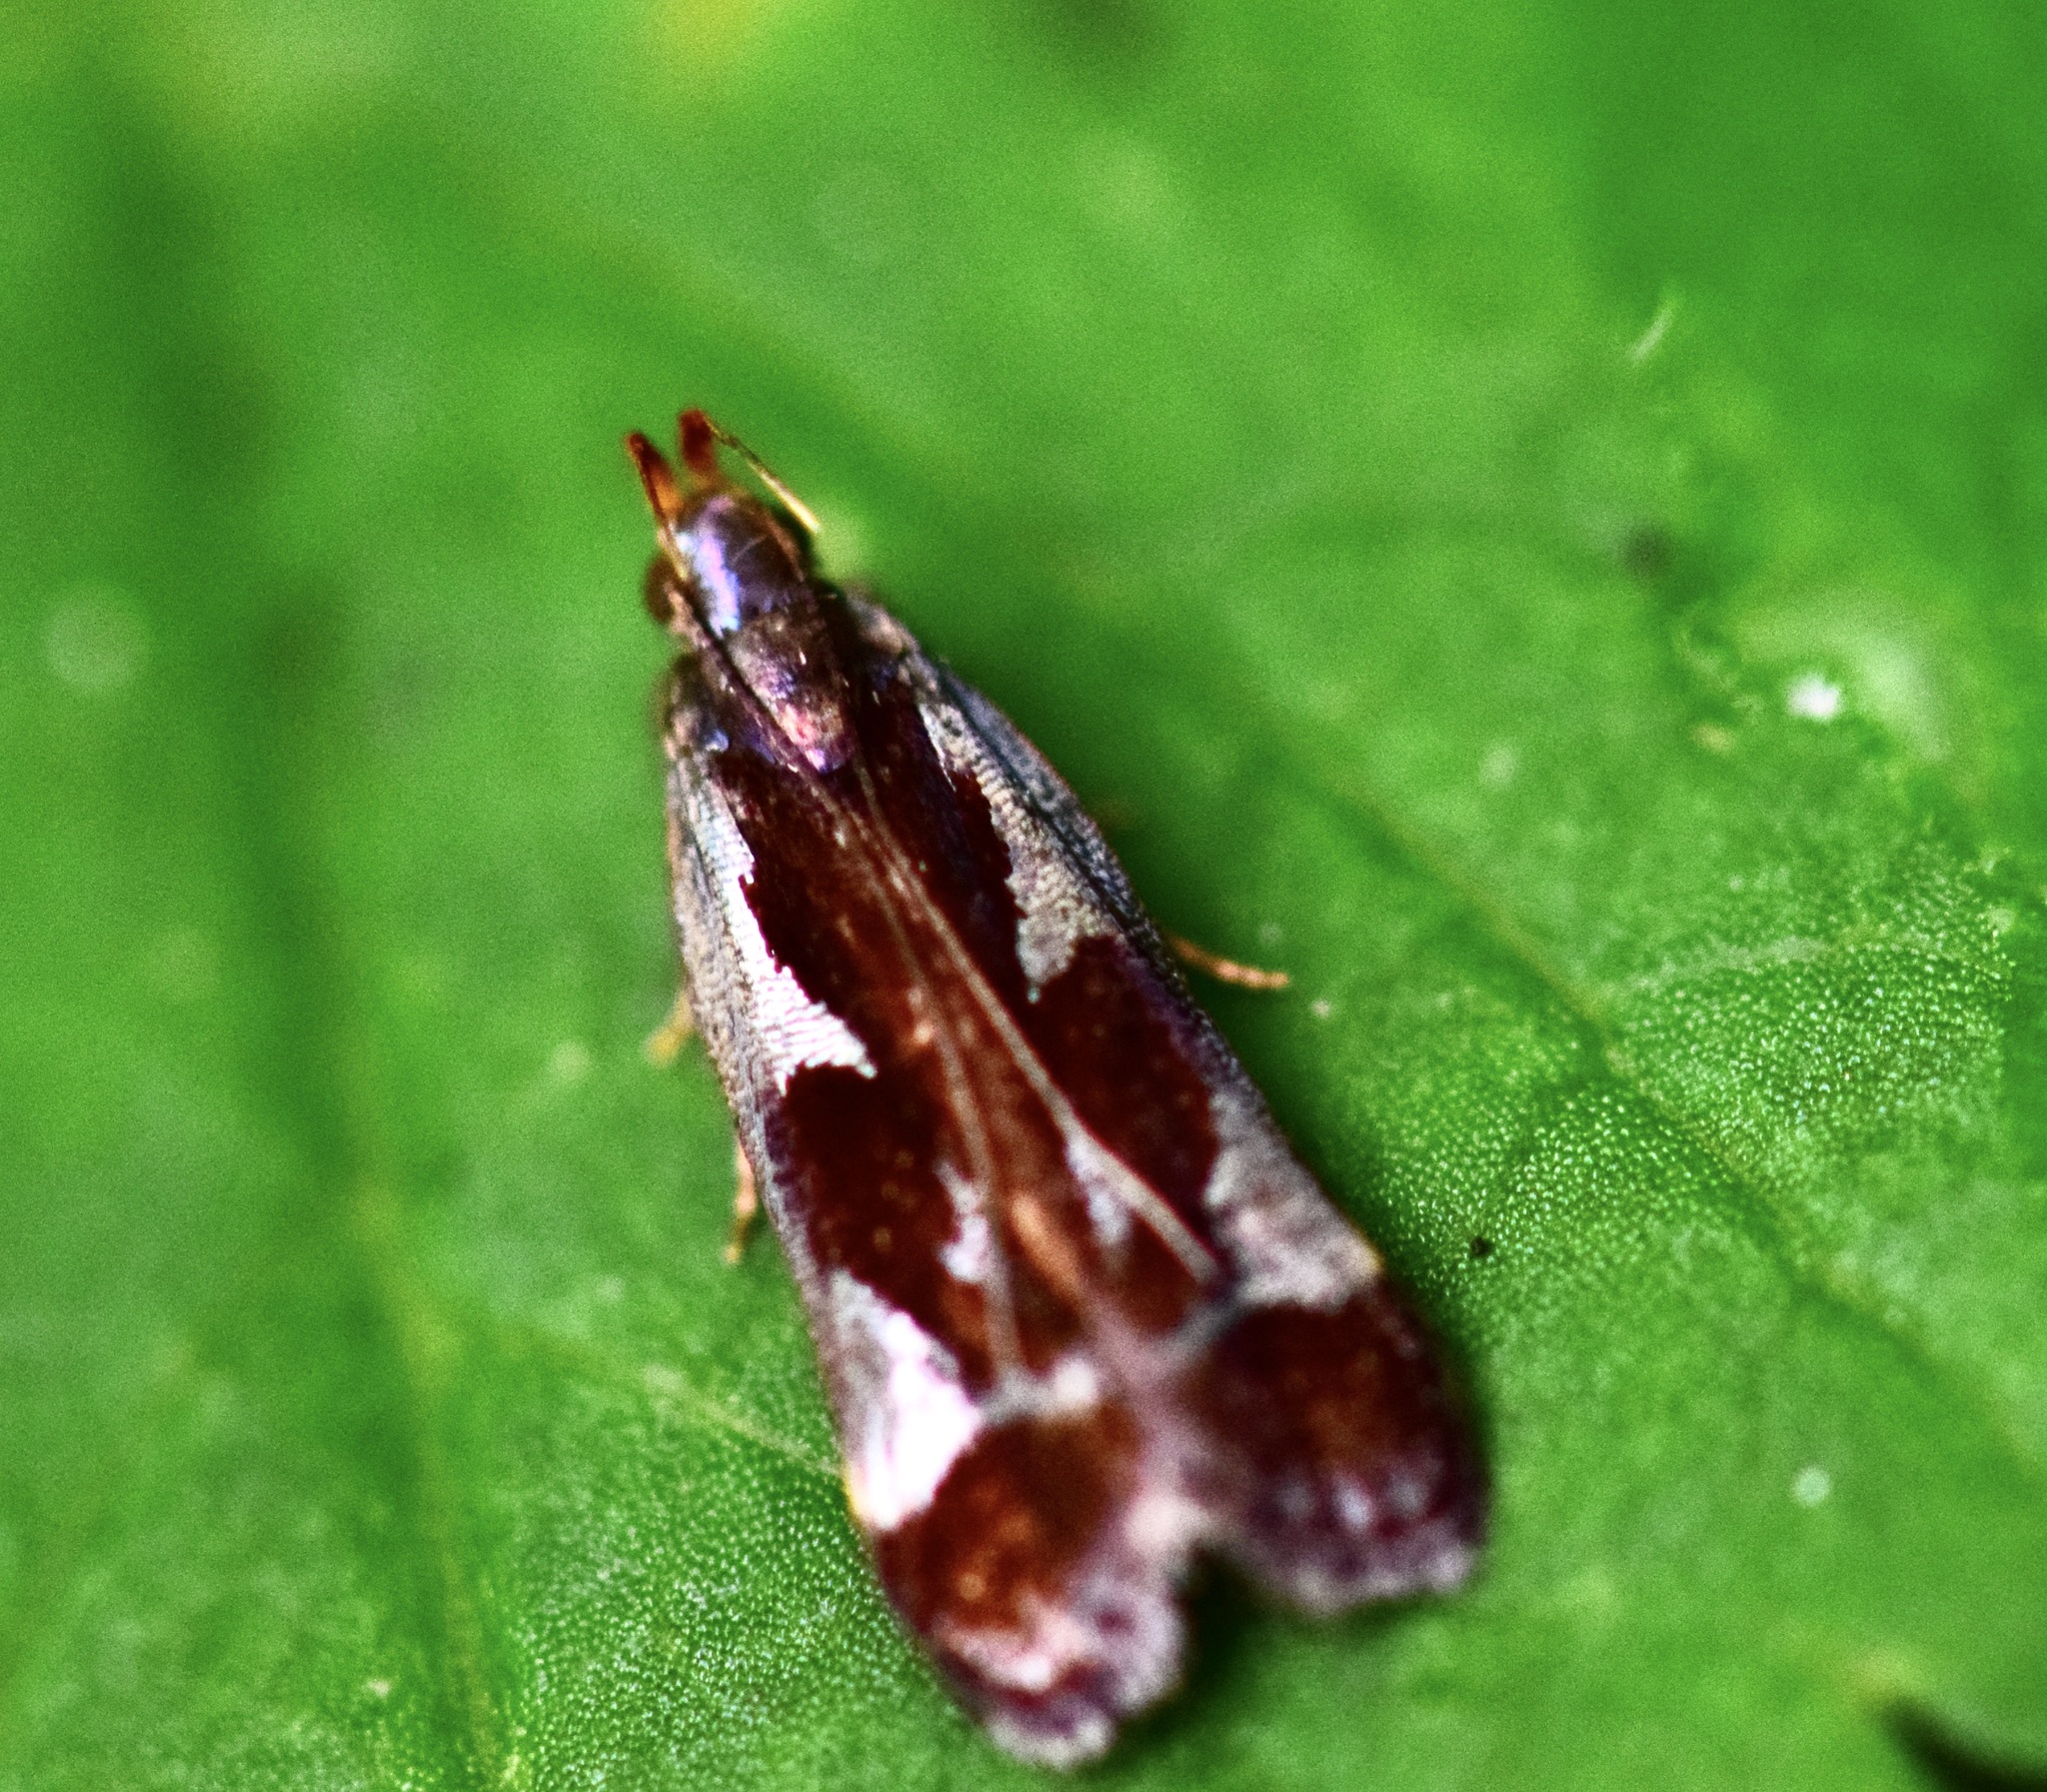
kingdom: Animalia
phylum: Arthropoda
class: Insecta
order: Lepidoptera
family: Gelechiidae
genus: Dichomeris
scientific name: Dichomeris ochripalpella
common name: Shining dichomeris moth
